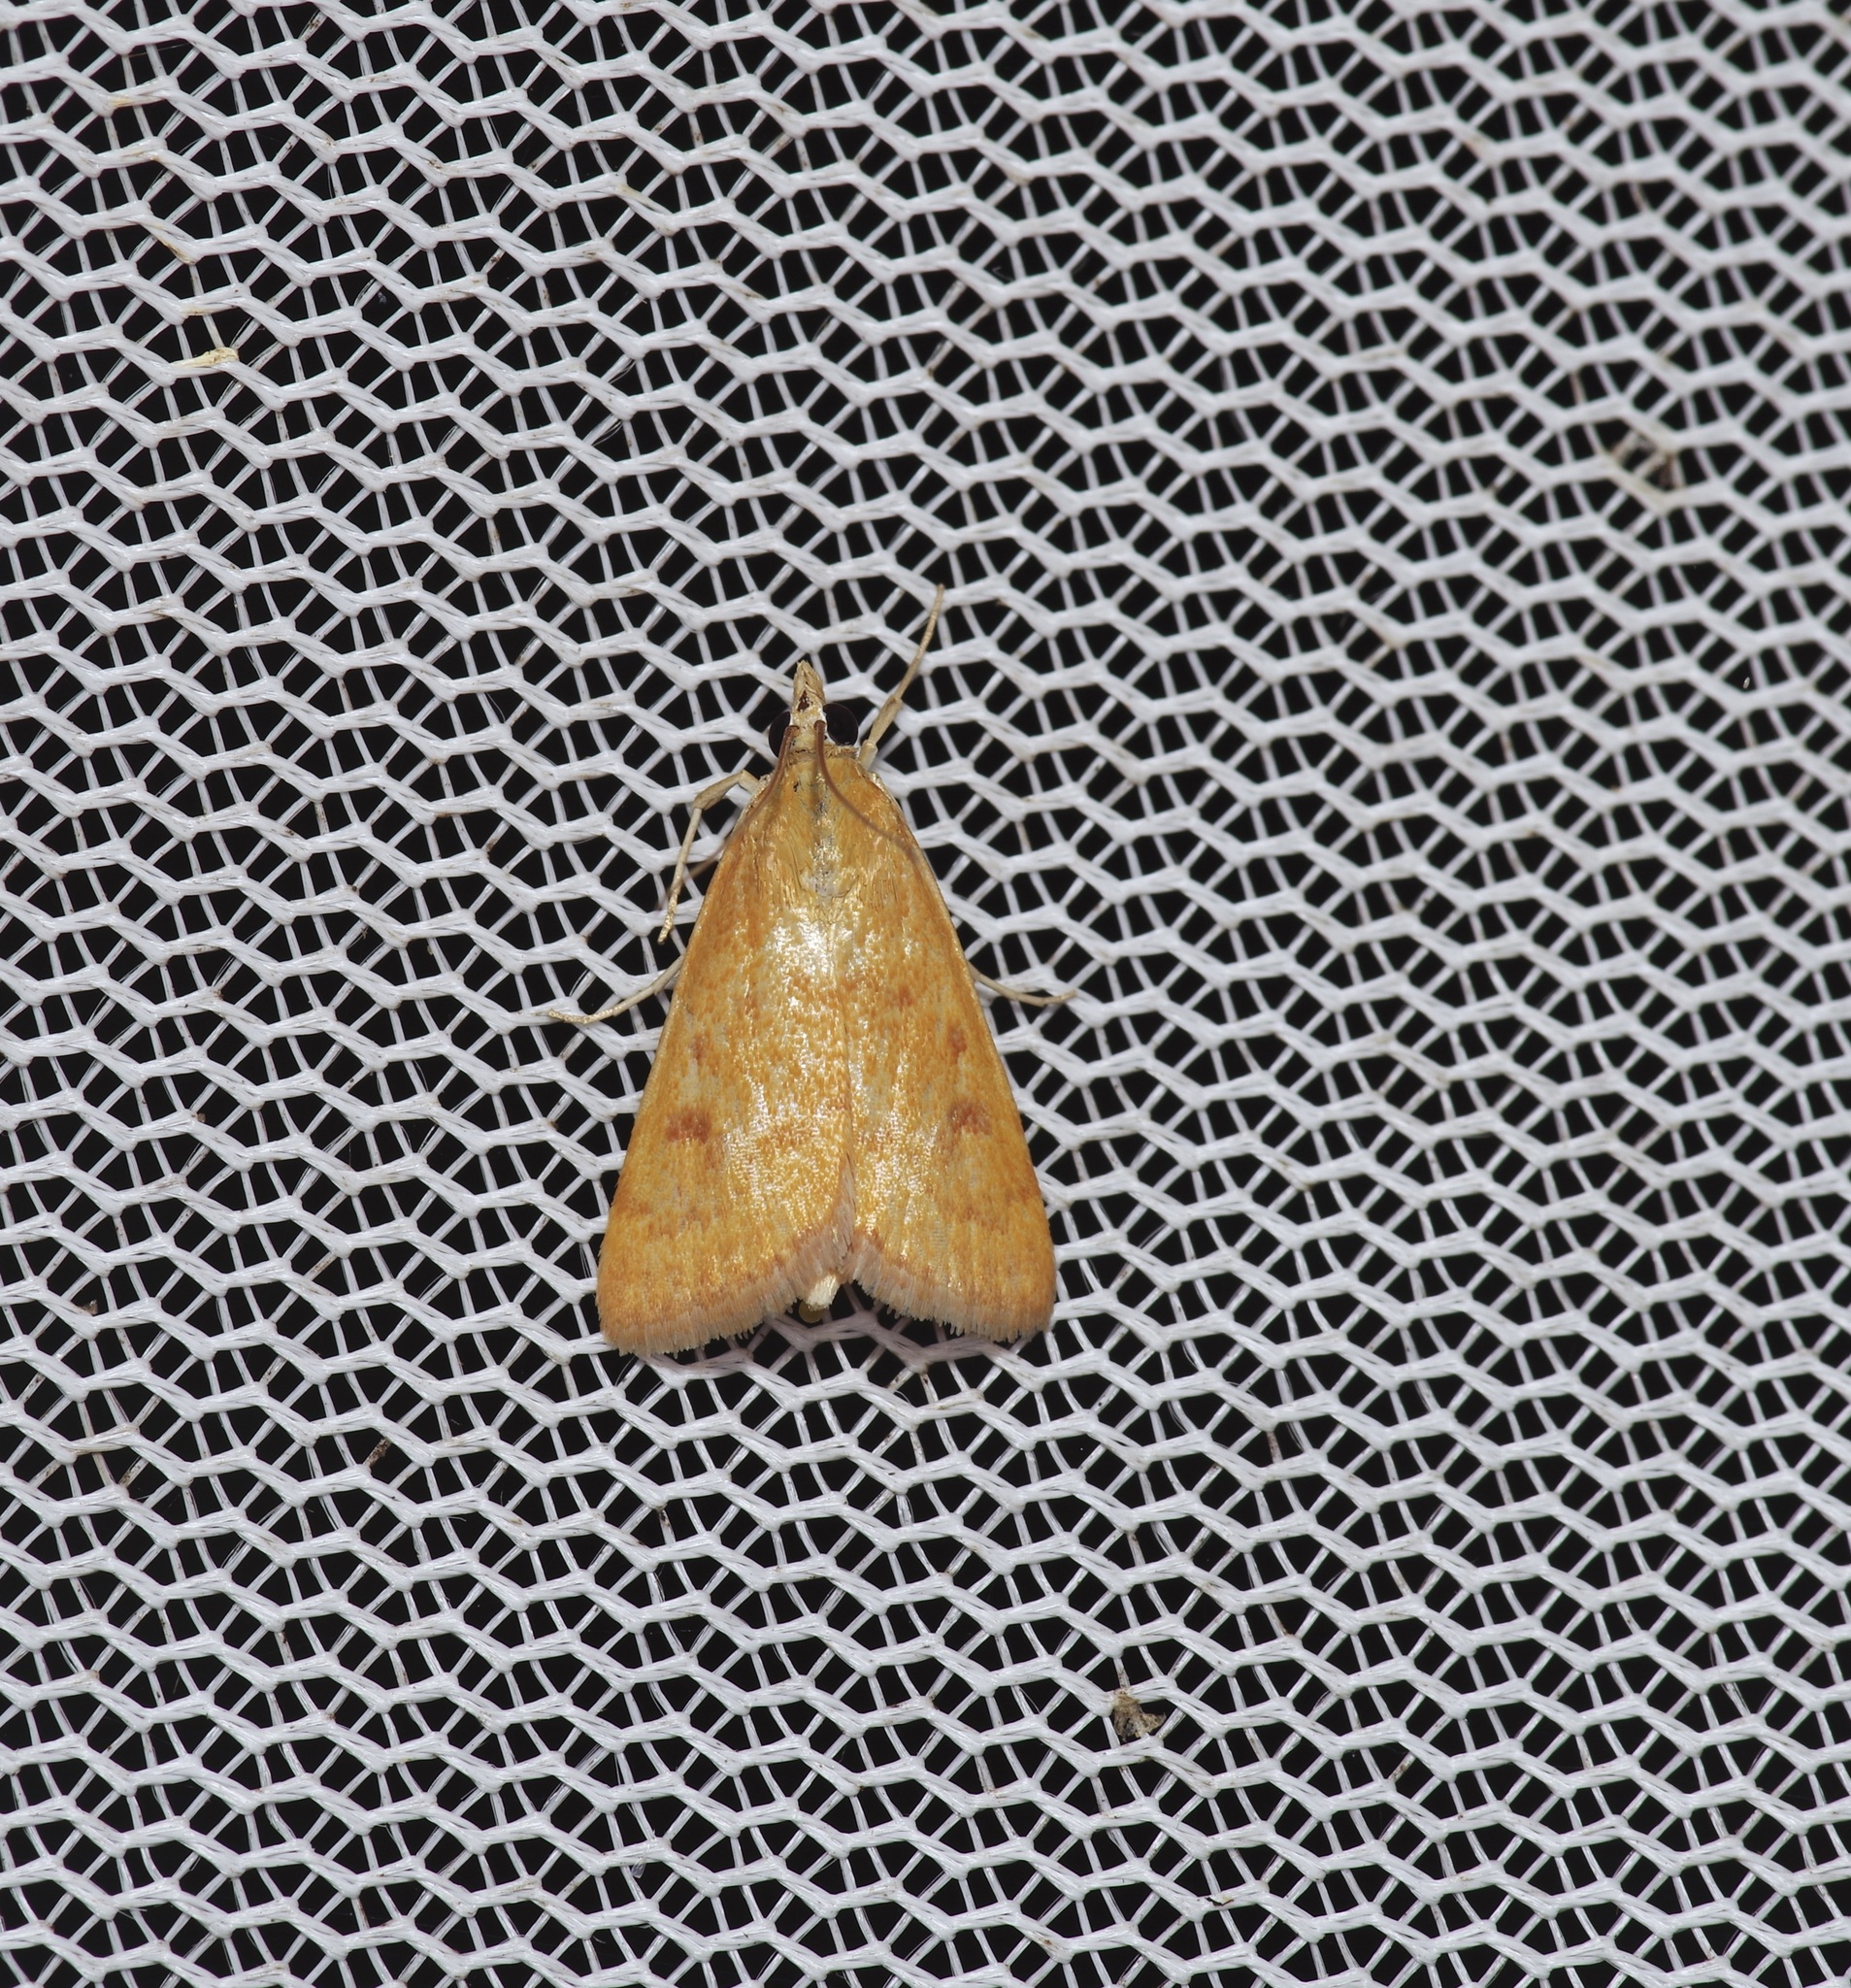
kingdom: Animalia
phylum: Arthropoda
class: Insecta
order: Lepidoptera
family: Crambidae
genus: Achyra
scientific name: Achyra rantalis
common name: Garden webworm
